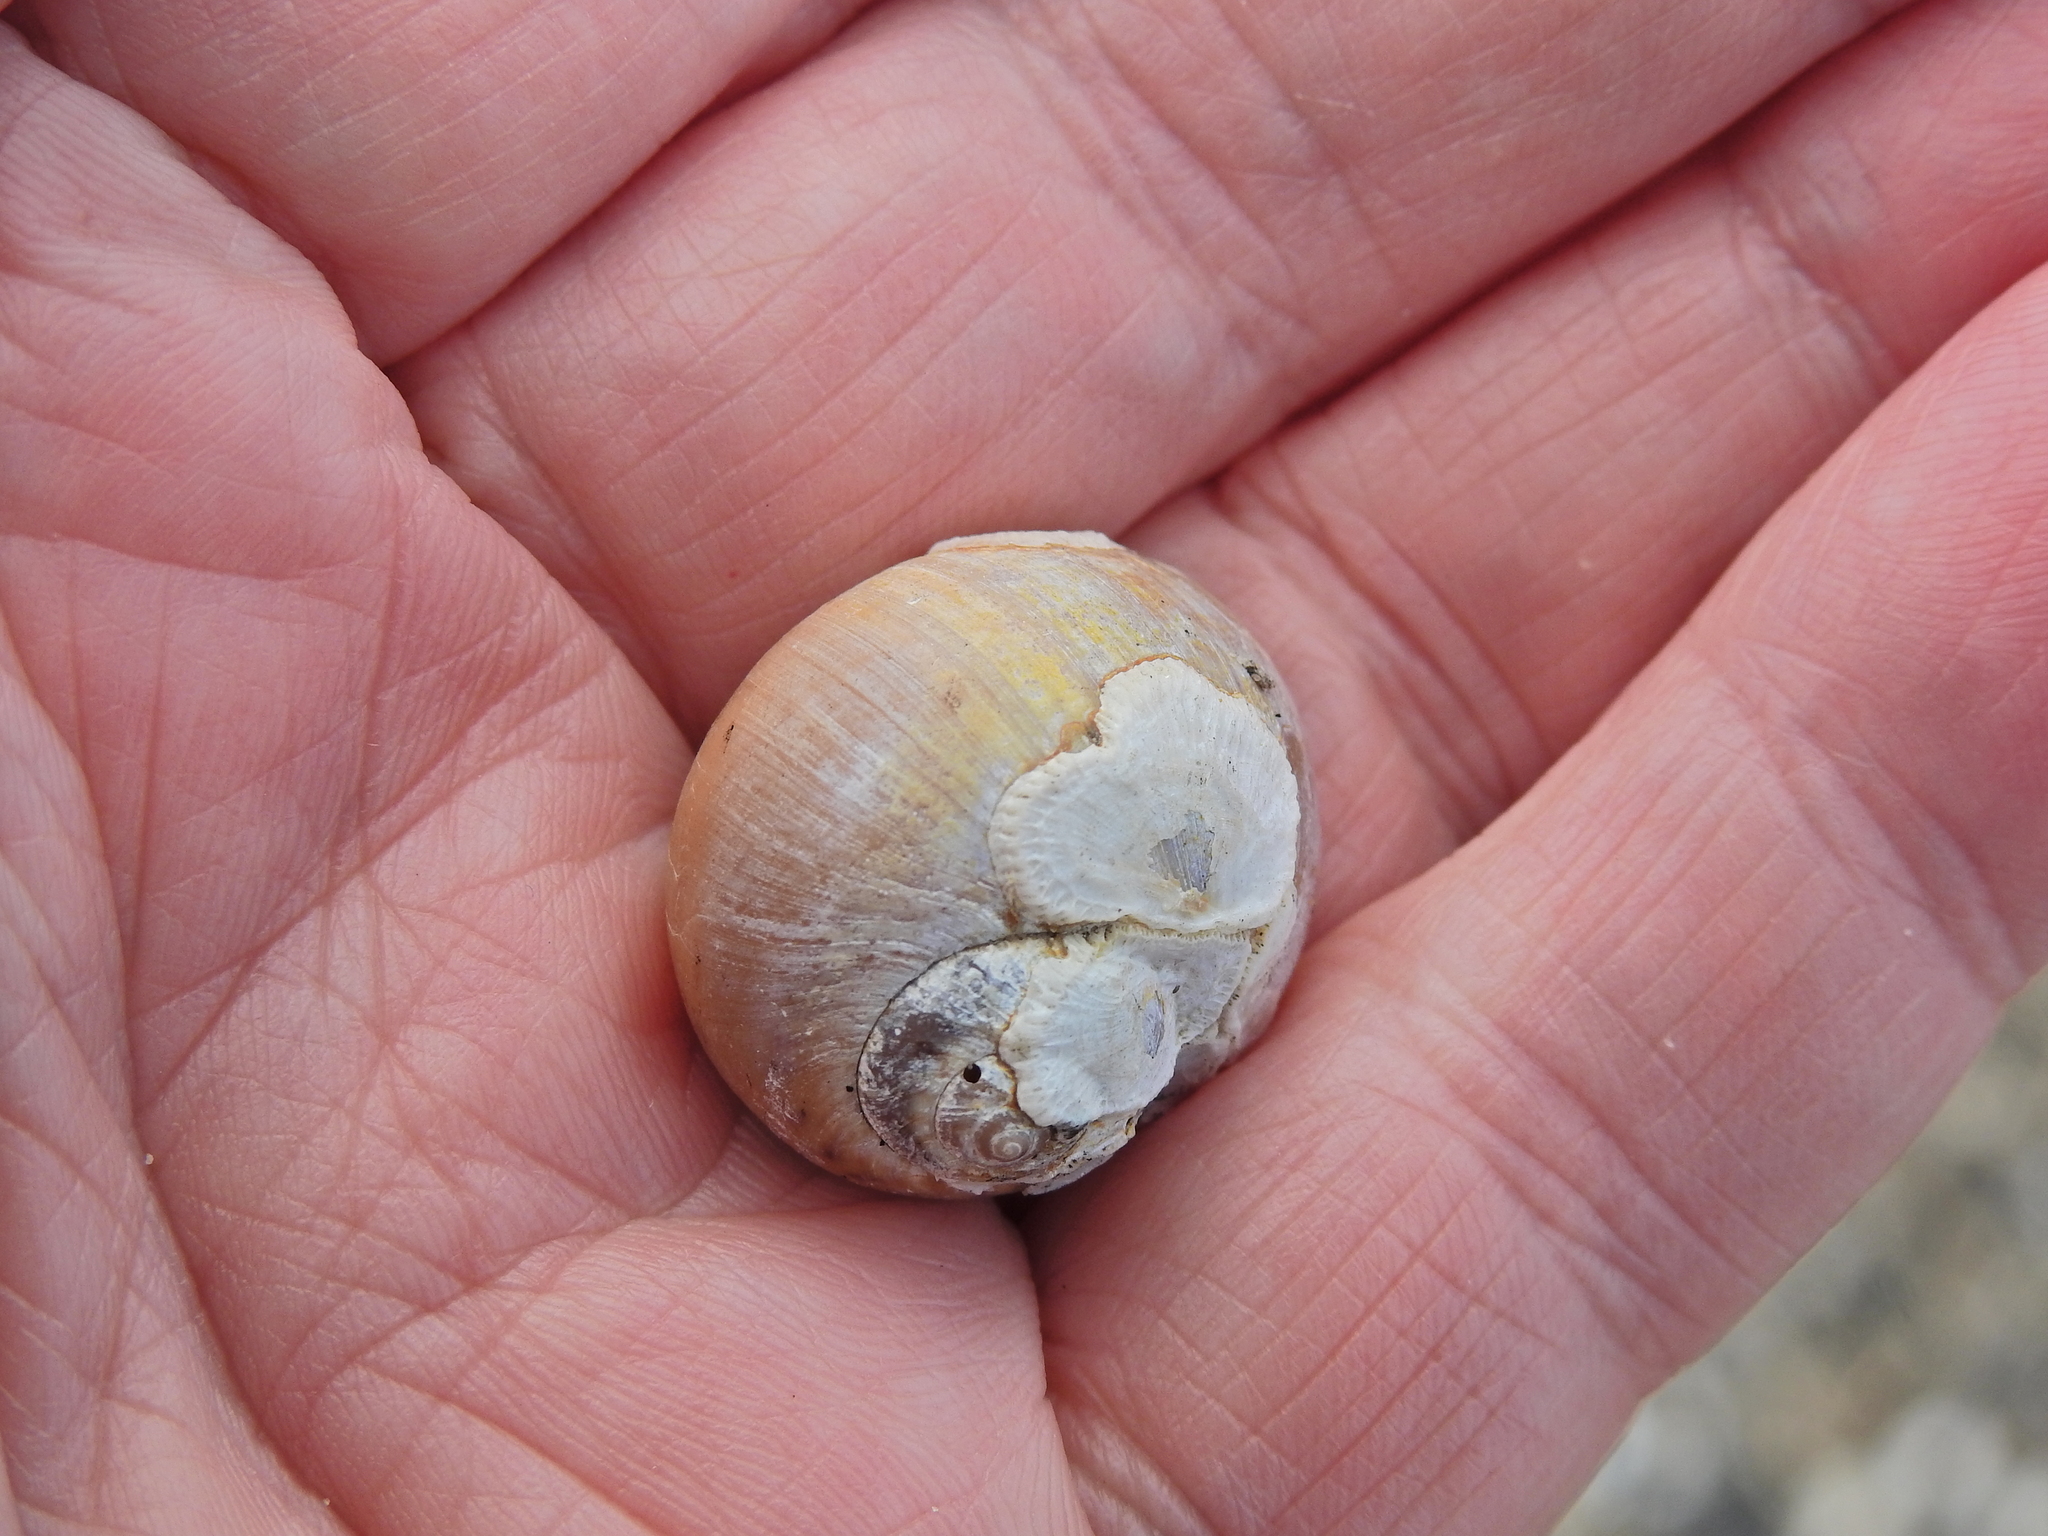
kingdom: Animalia
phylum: Mollusca
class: Gastropoda
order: Littorinimorpha
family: Naticidae
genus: Euspira
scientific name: Euspira catena
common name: Necklace shell
